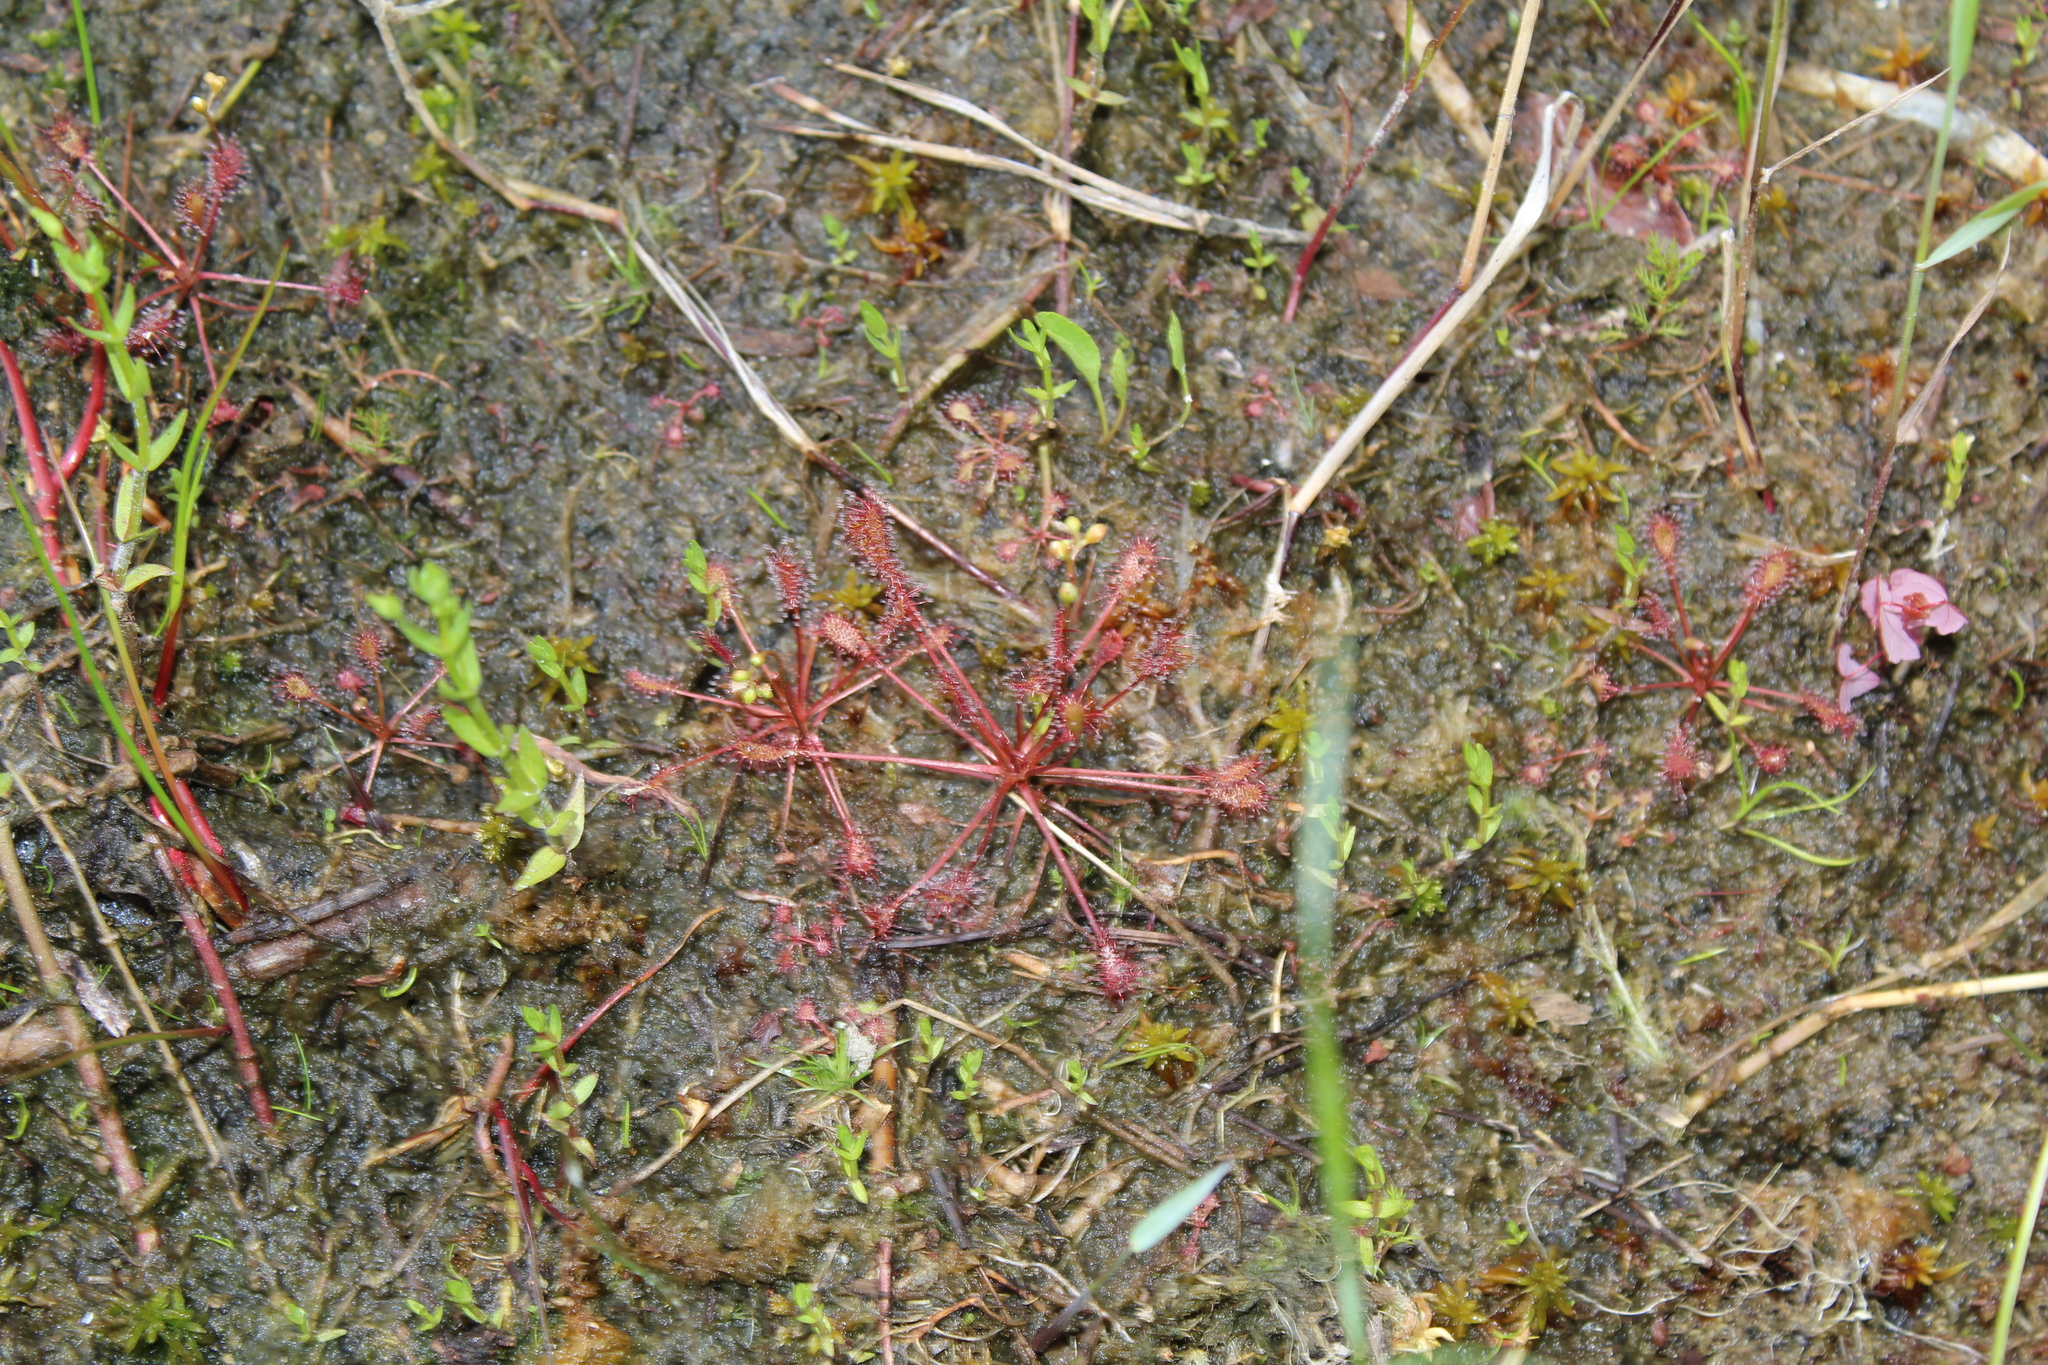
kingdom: Plantae
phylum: Tracheophyta
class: Magnoliopsida
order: Caryophyllales
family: Droseraceae
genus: Drosera
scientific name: Drosera intermedia
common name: Oblong-leaved sundew
